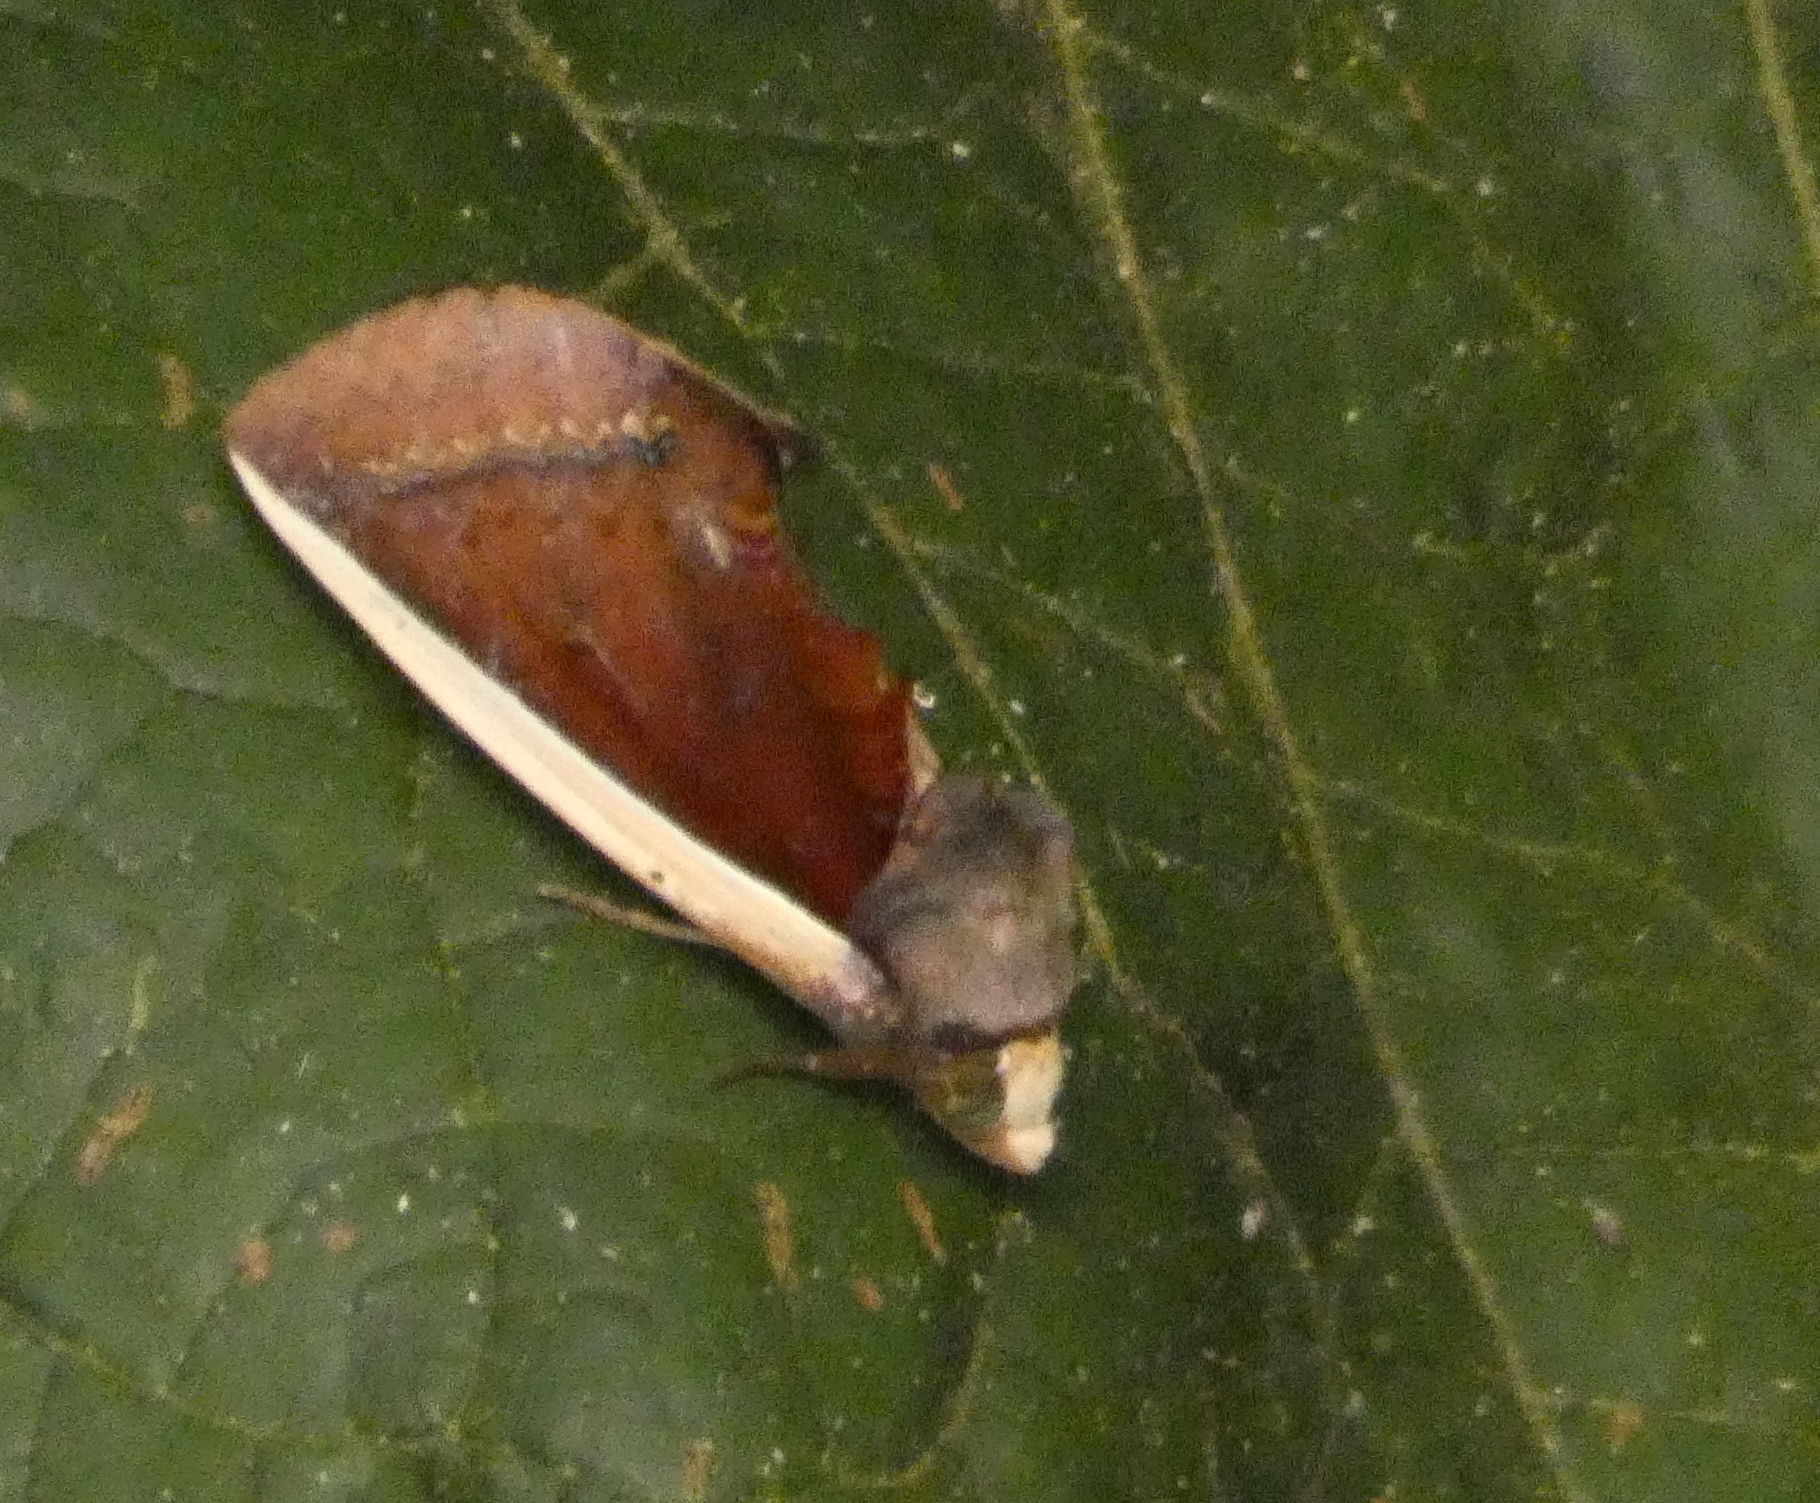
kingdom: Animalia
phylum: Arthropoda
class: Insecta
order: Lepidoptera
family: Erebidae
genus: Gonodonta
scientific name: Gonodonta pyrgo
